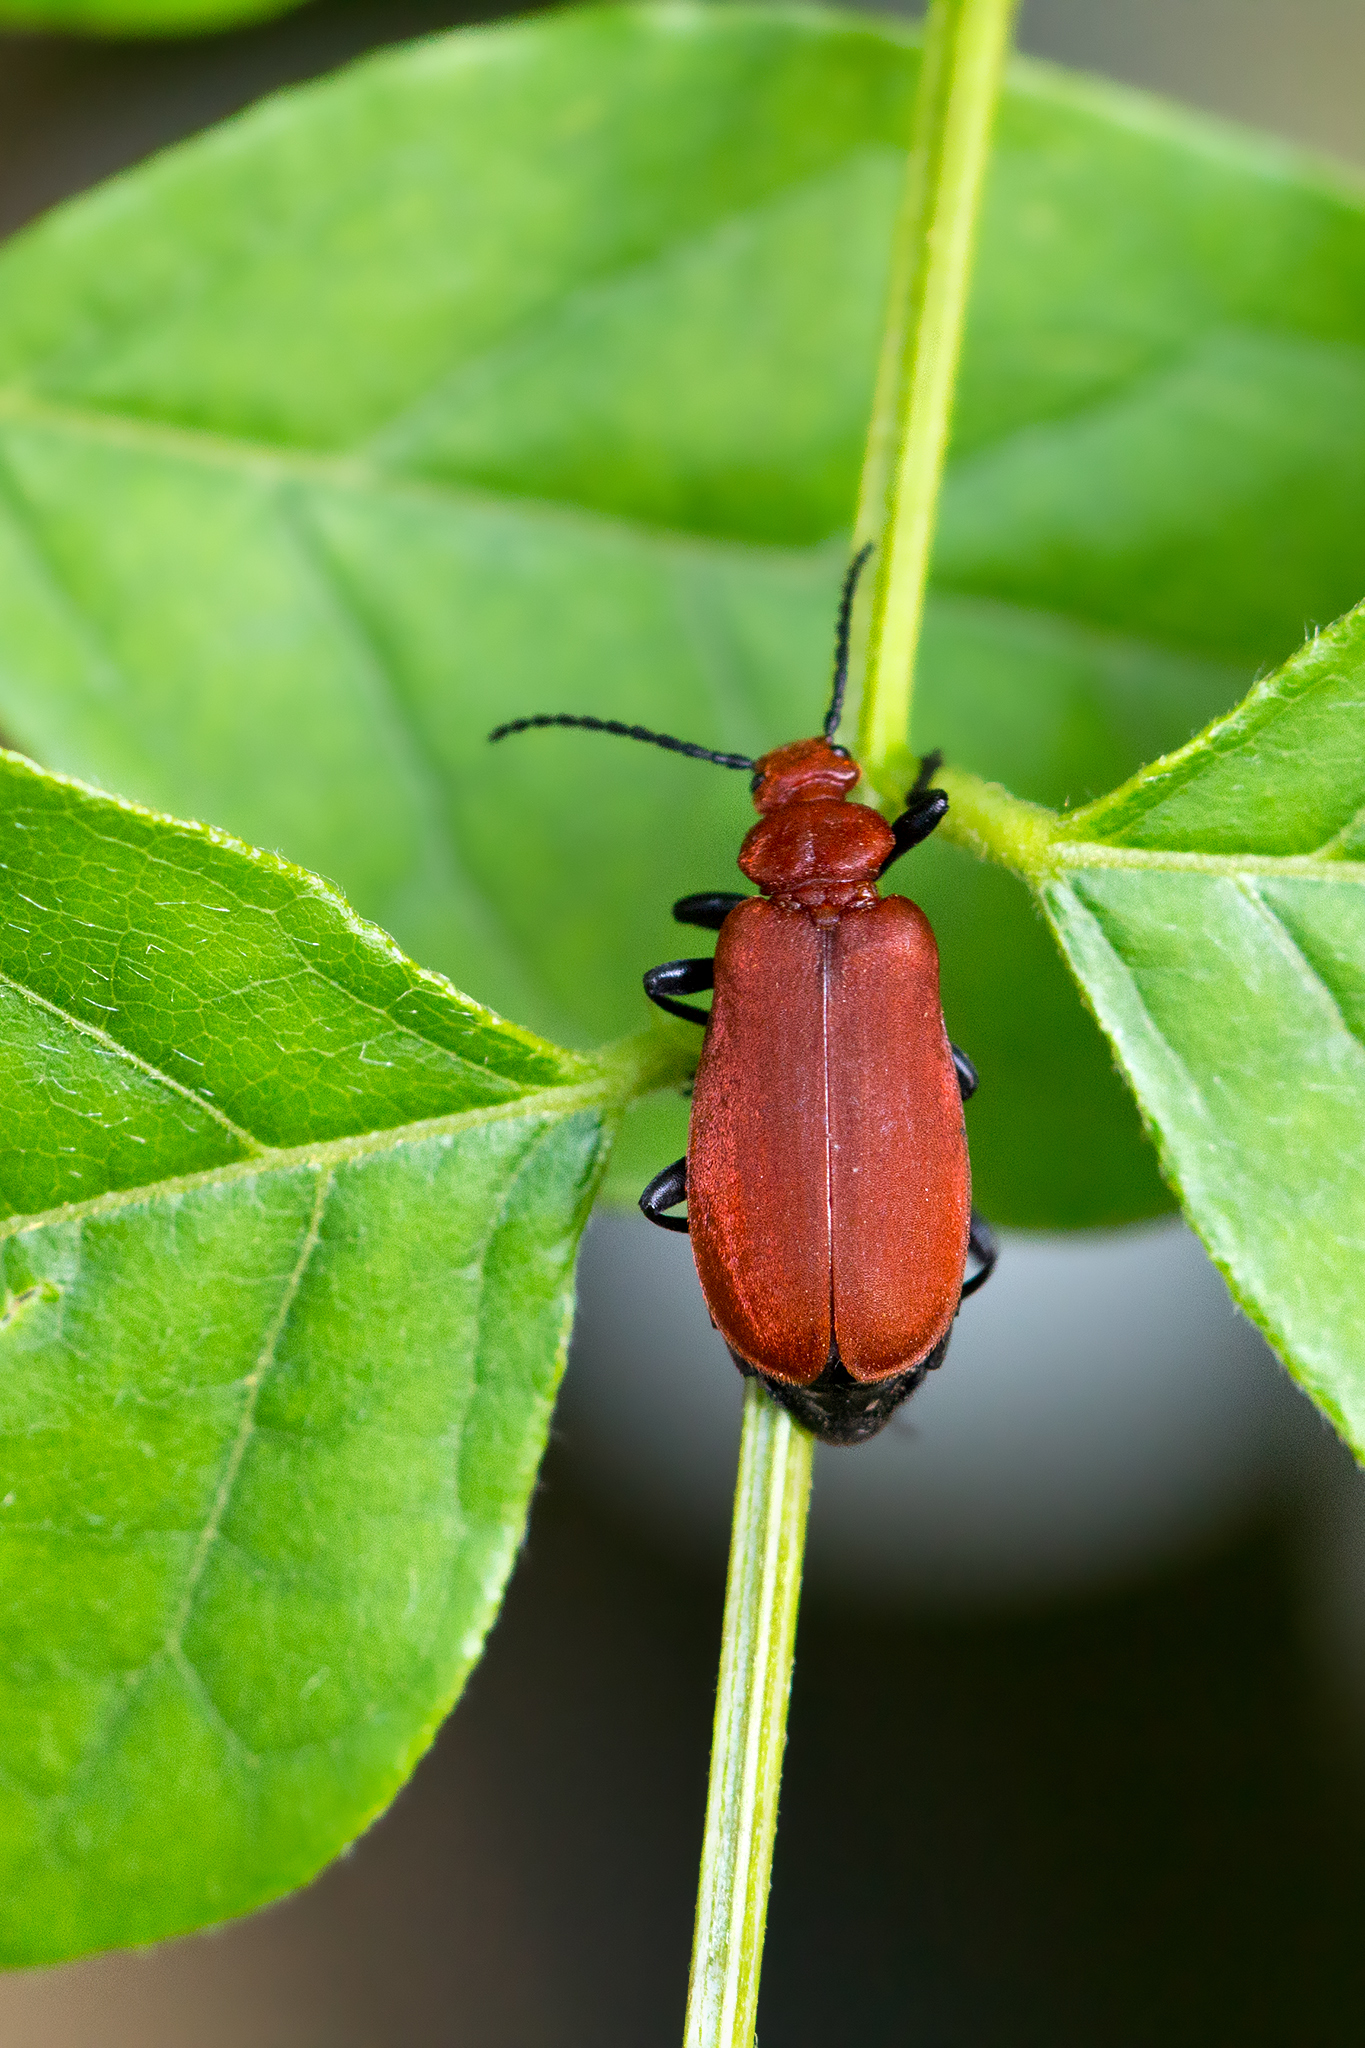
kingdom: Animalia
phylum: Arthropoda
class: Insecta
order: Coleoptera
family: Pyrochroidae
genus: Pyrochroa
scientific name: Pyrochroa serraticornis
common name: Red-headed cardinal beetle
